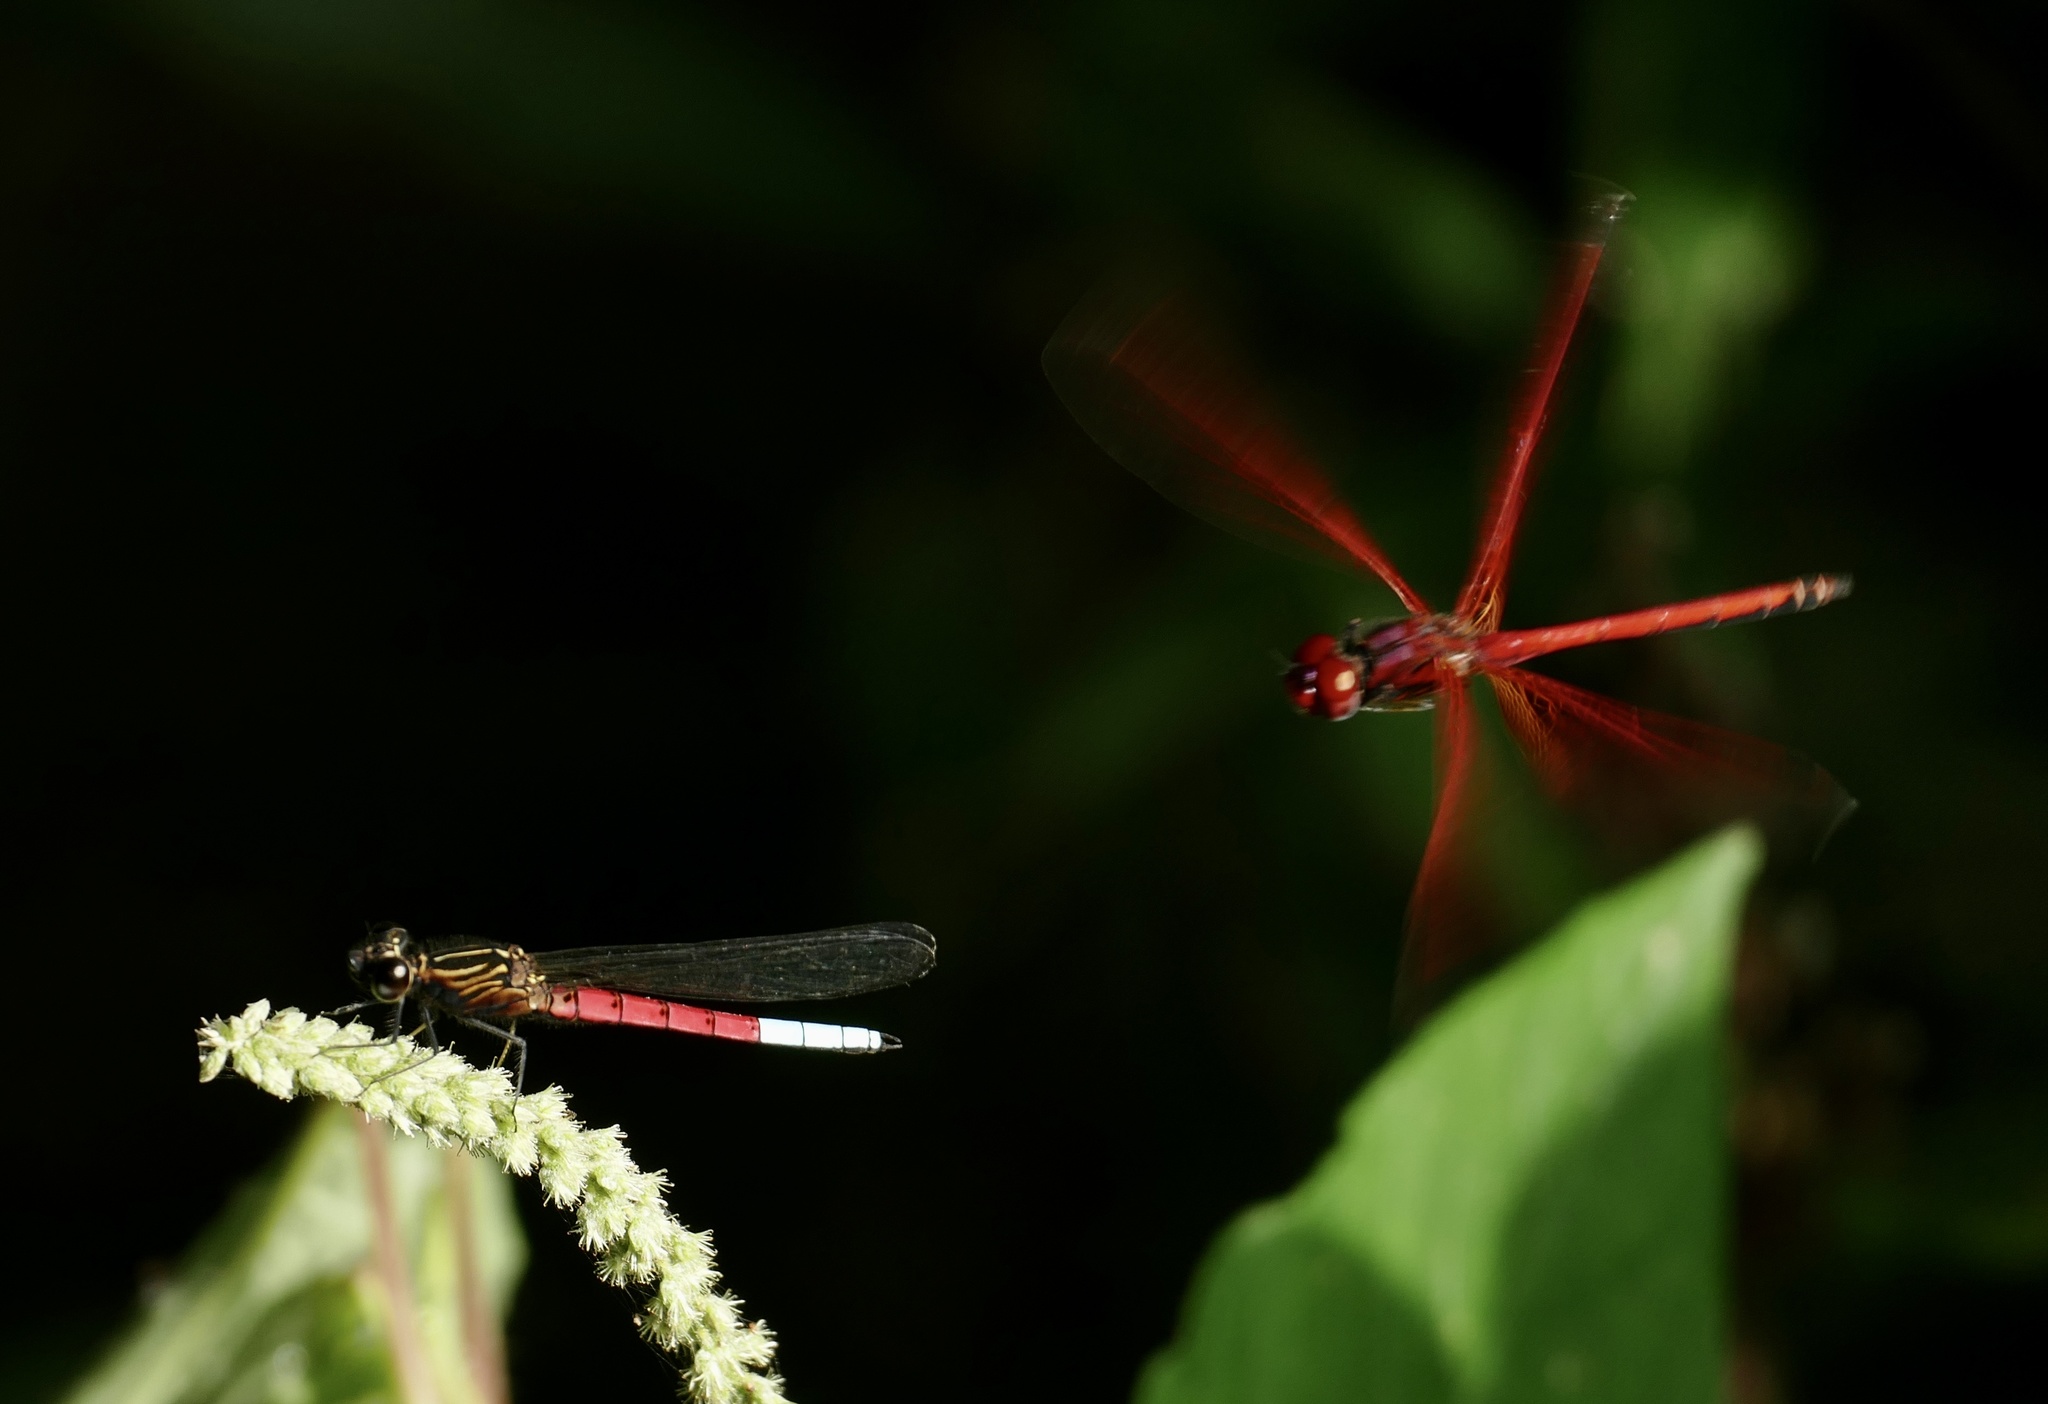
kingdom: Animalia
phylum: Arthropoda
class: Insecta
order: Odonata
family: Chlorocyphidae
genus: Chlorocypha
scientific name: Chlorocypha curta
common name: Blue-tipped jewel
